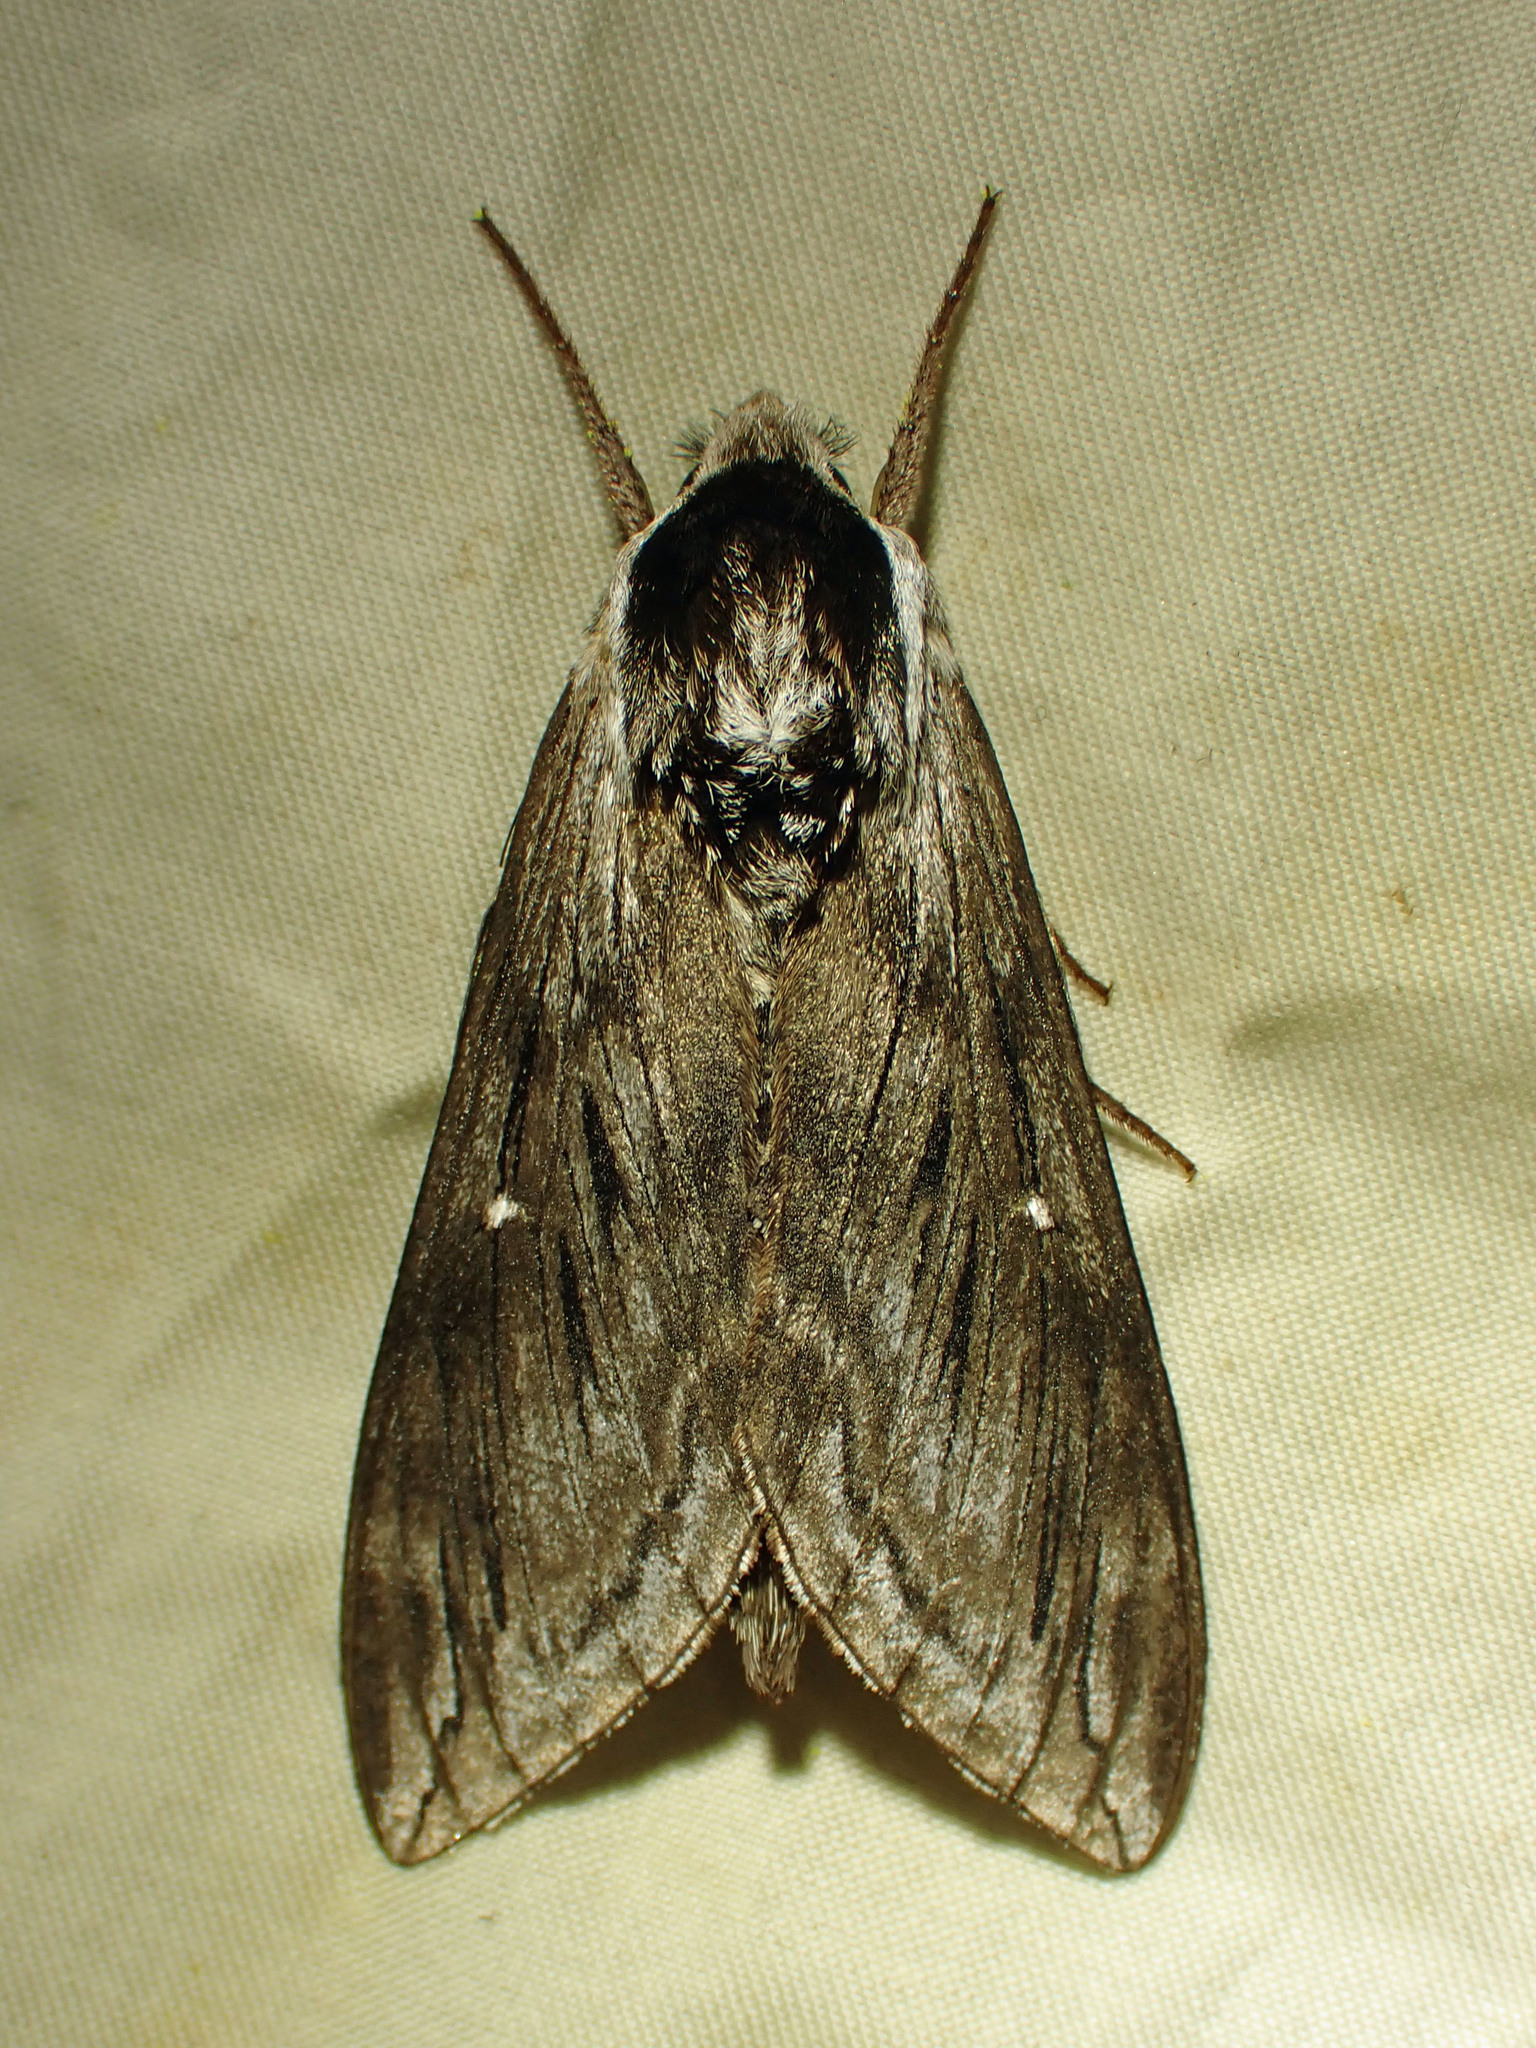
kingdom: Animalia
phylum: Arthropoda
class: Insecta
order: Lepidoptera
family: Sphingidae
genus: Sphinx
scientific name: Sphinx poecila
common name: Northern apple sphinx
